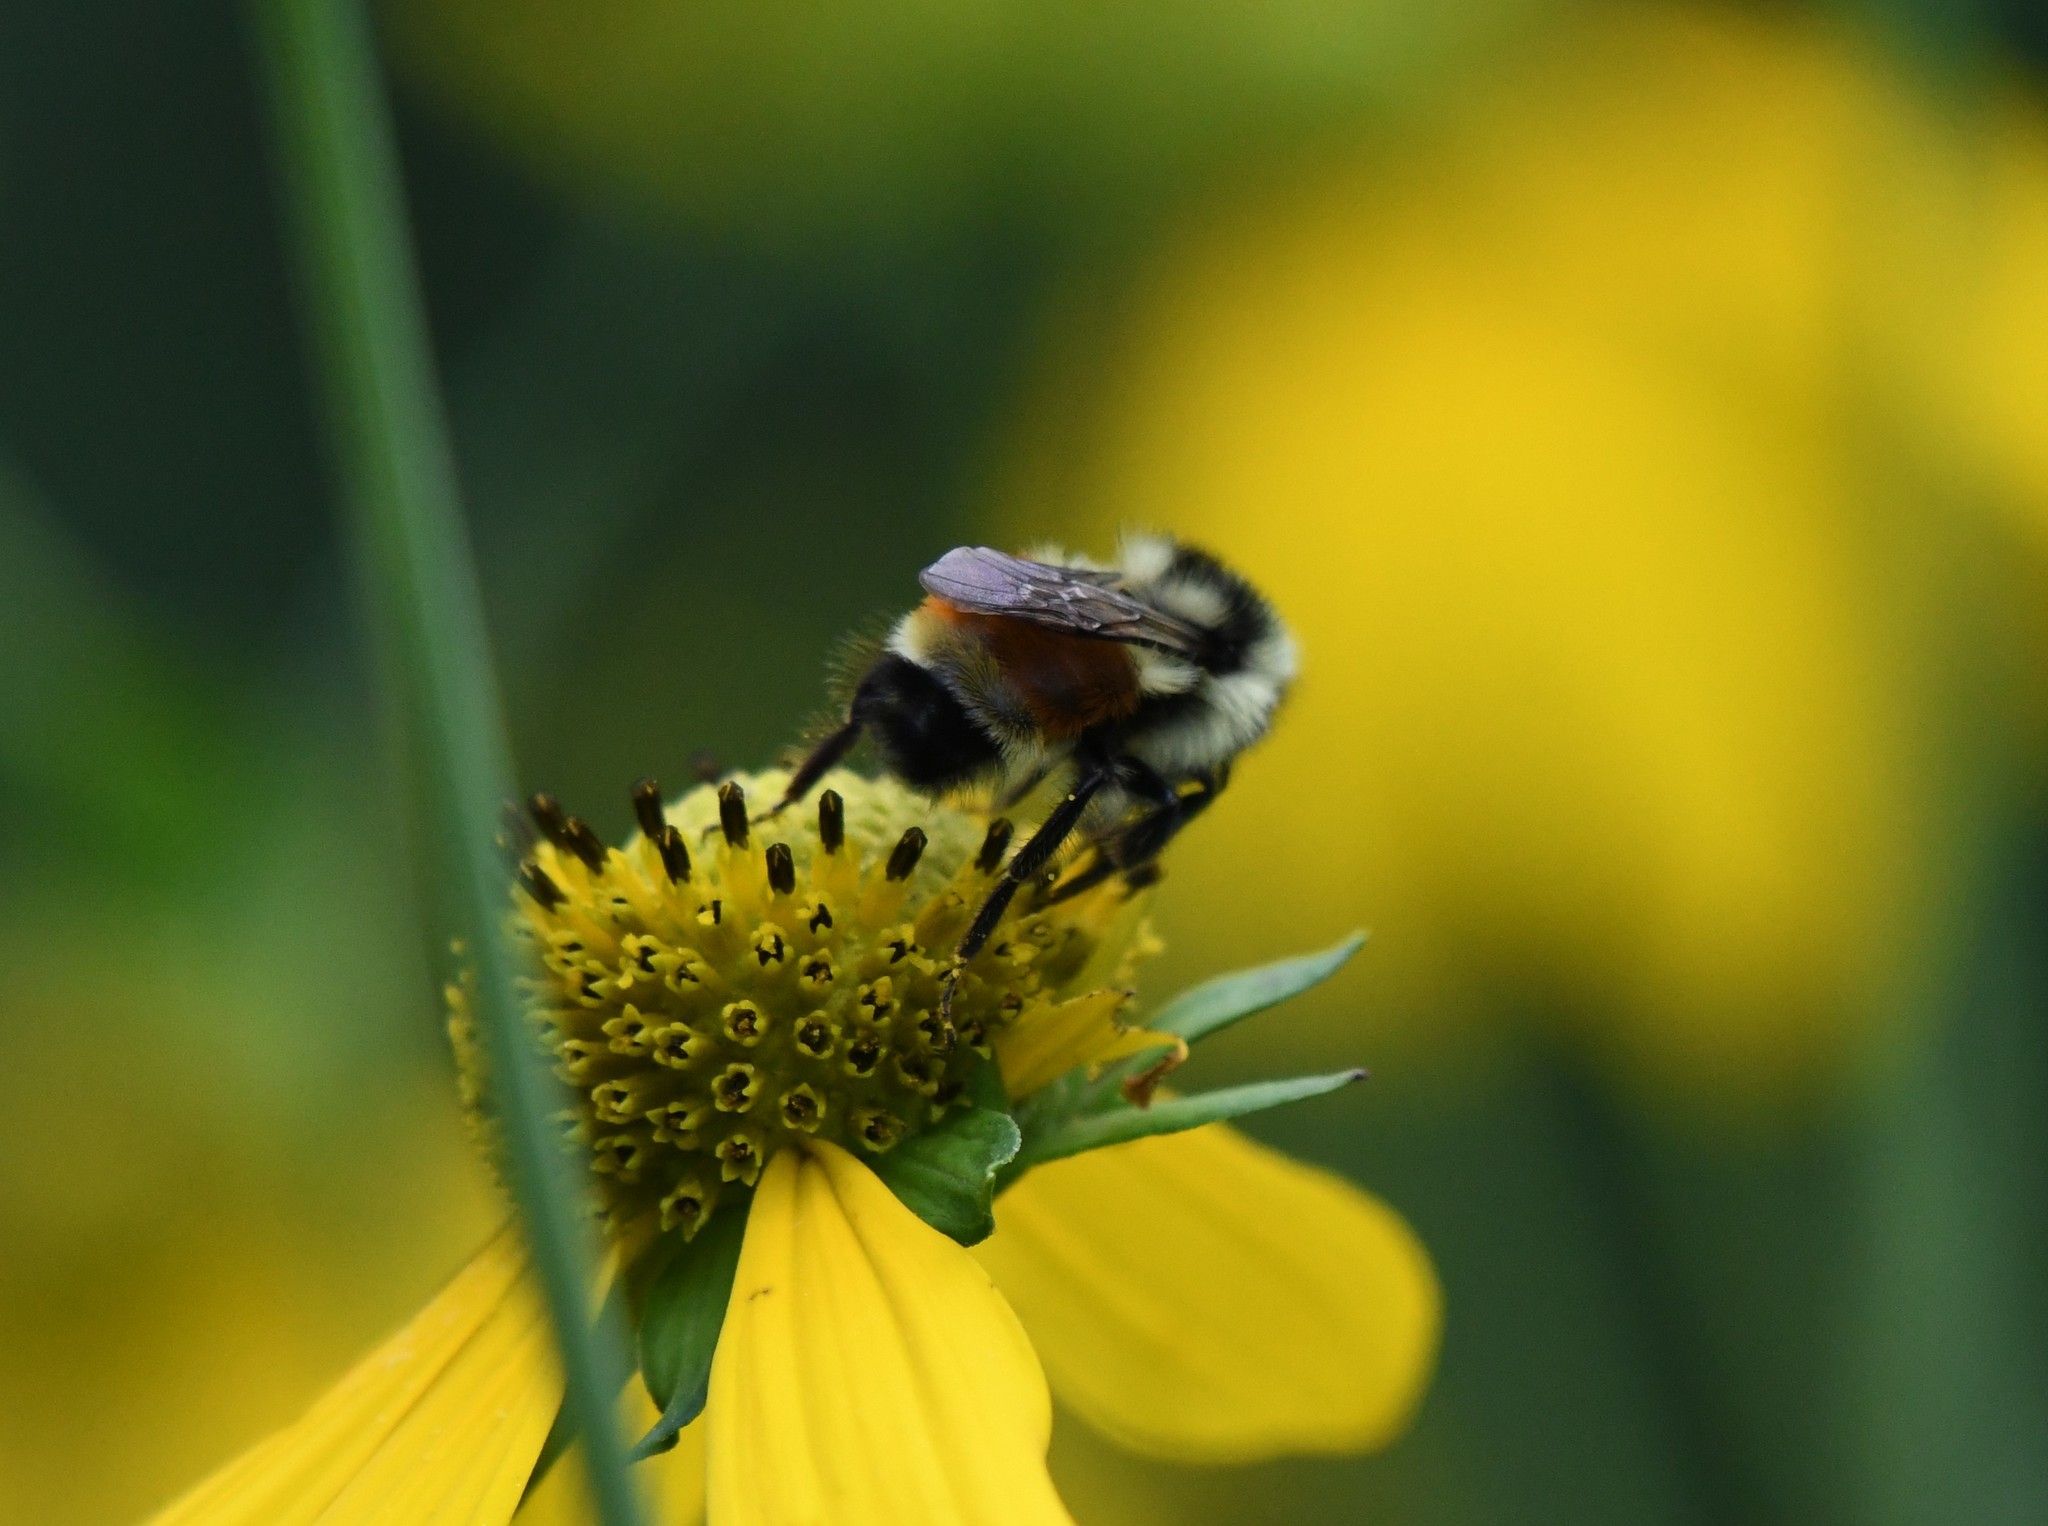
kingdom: Animalia
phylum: Arthropoda
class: Insecta
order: Hymenoptera
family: Apidae
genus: Bombus
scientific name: Bombus ternarius
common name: Tri-colored bumble bee
